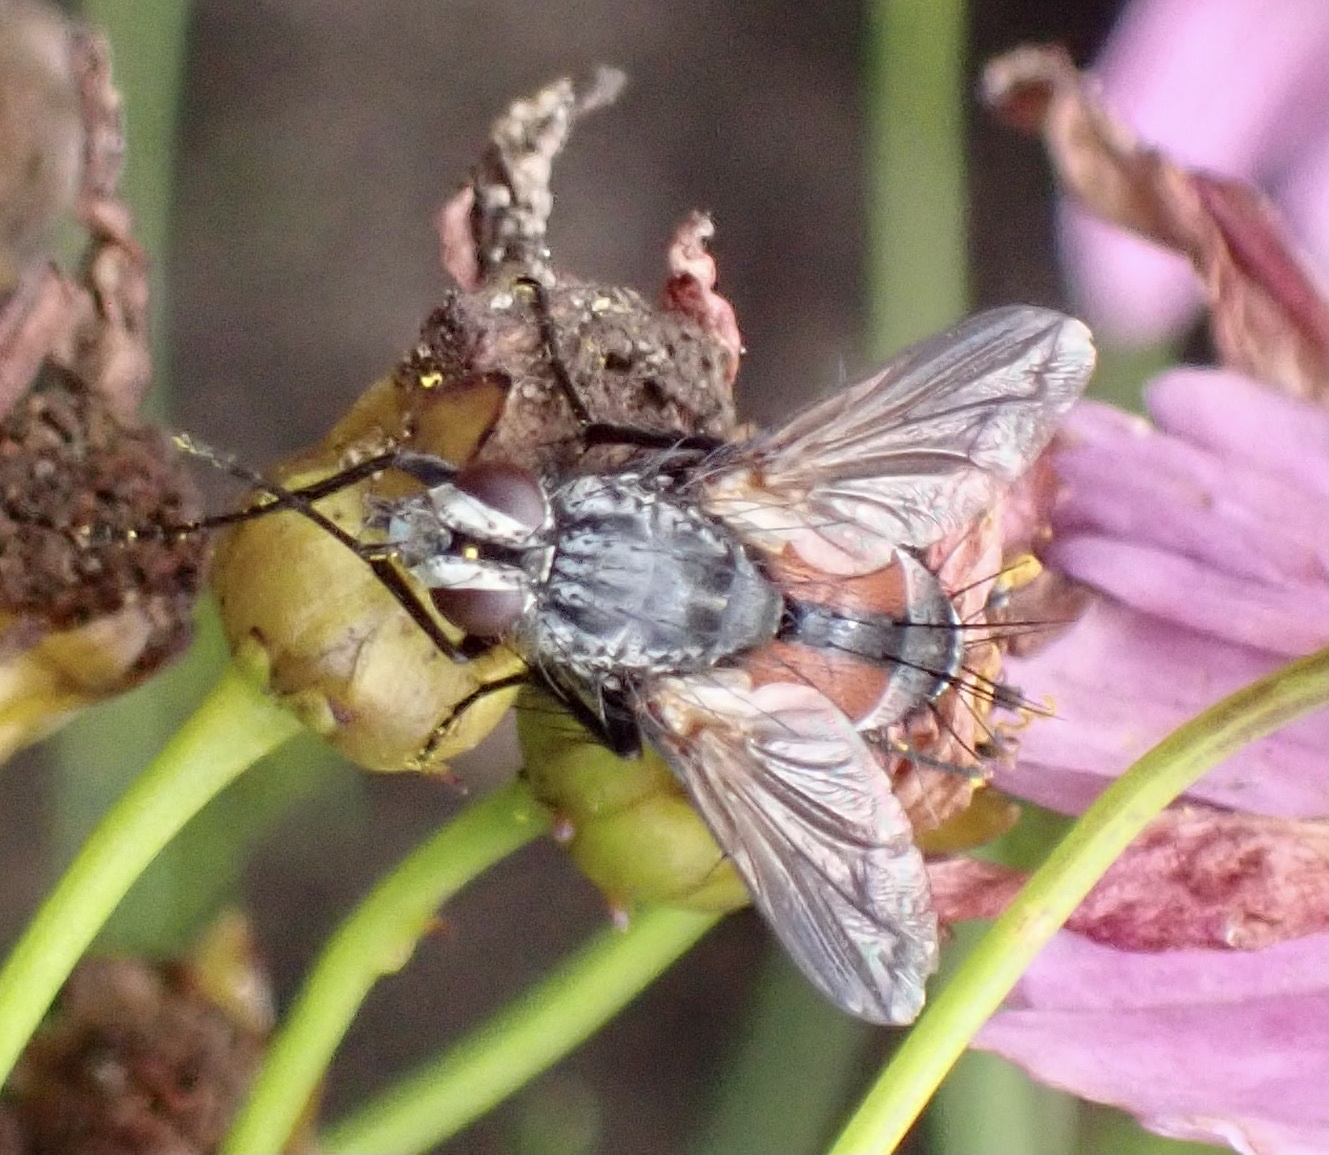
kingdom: Animalia
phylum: Arthropoda
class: Insecta
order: Diptera
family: Tachinidae
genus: Eriothrix
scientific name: Eriothrix rufomaculatus
